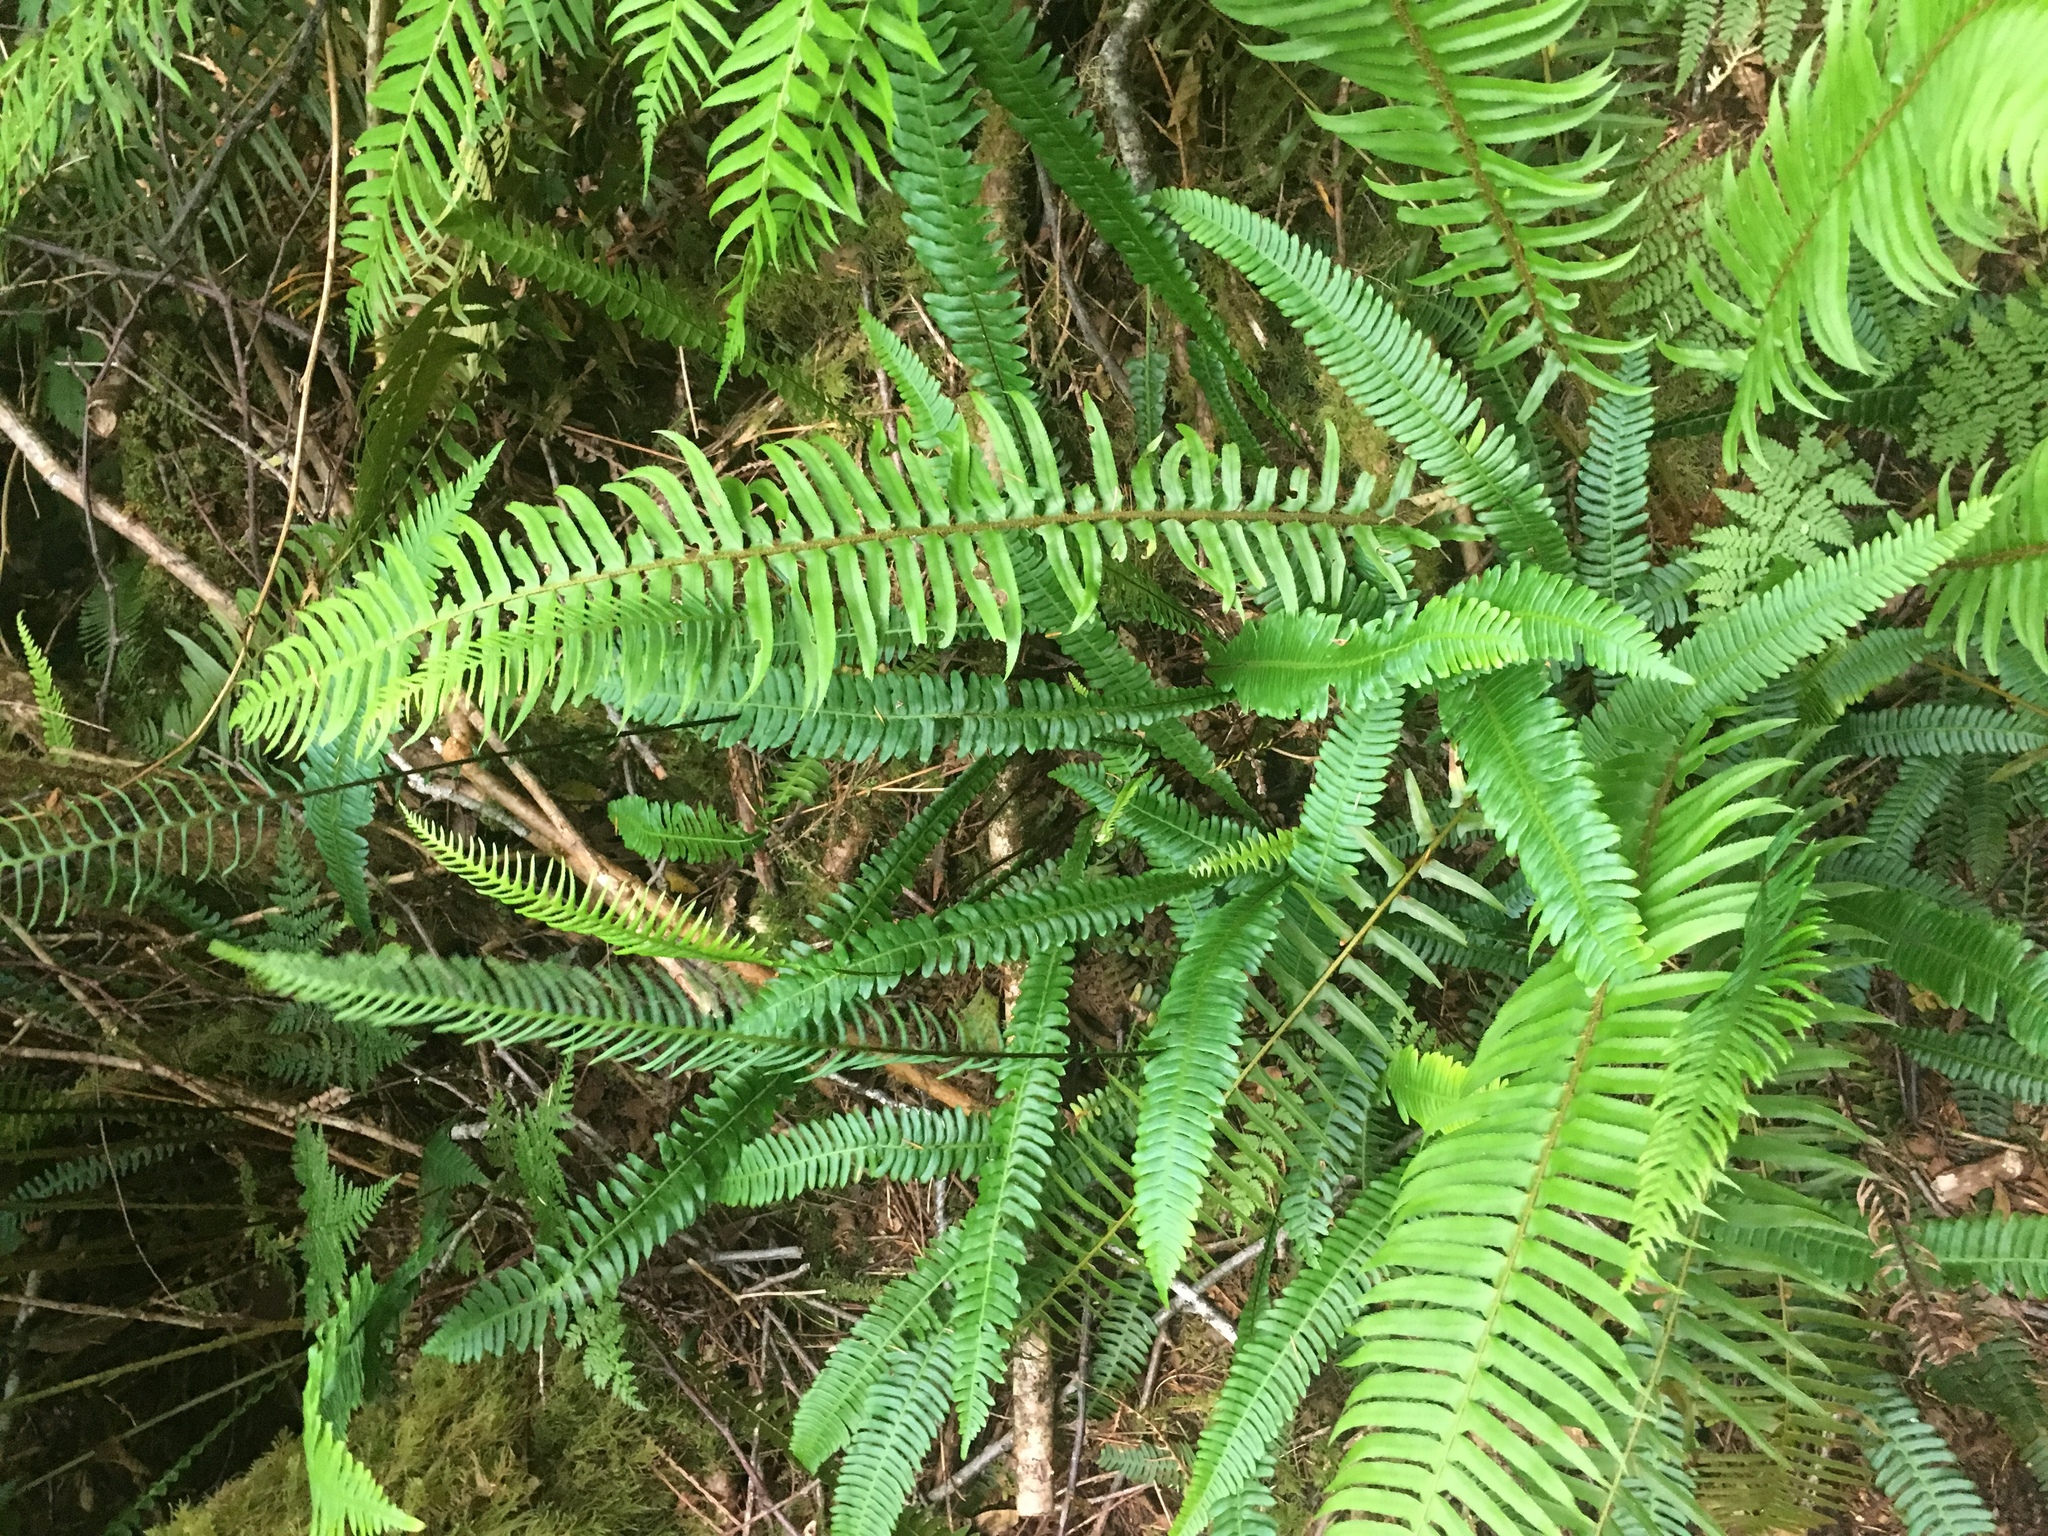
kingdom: Plantae
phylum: Tracheophyta
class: Polypodiopsida
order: Polypodiales
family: Blechnaceae
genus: Struthiopteris
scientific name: Struthiopteris spicant
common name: Deer fern
